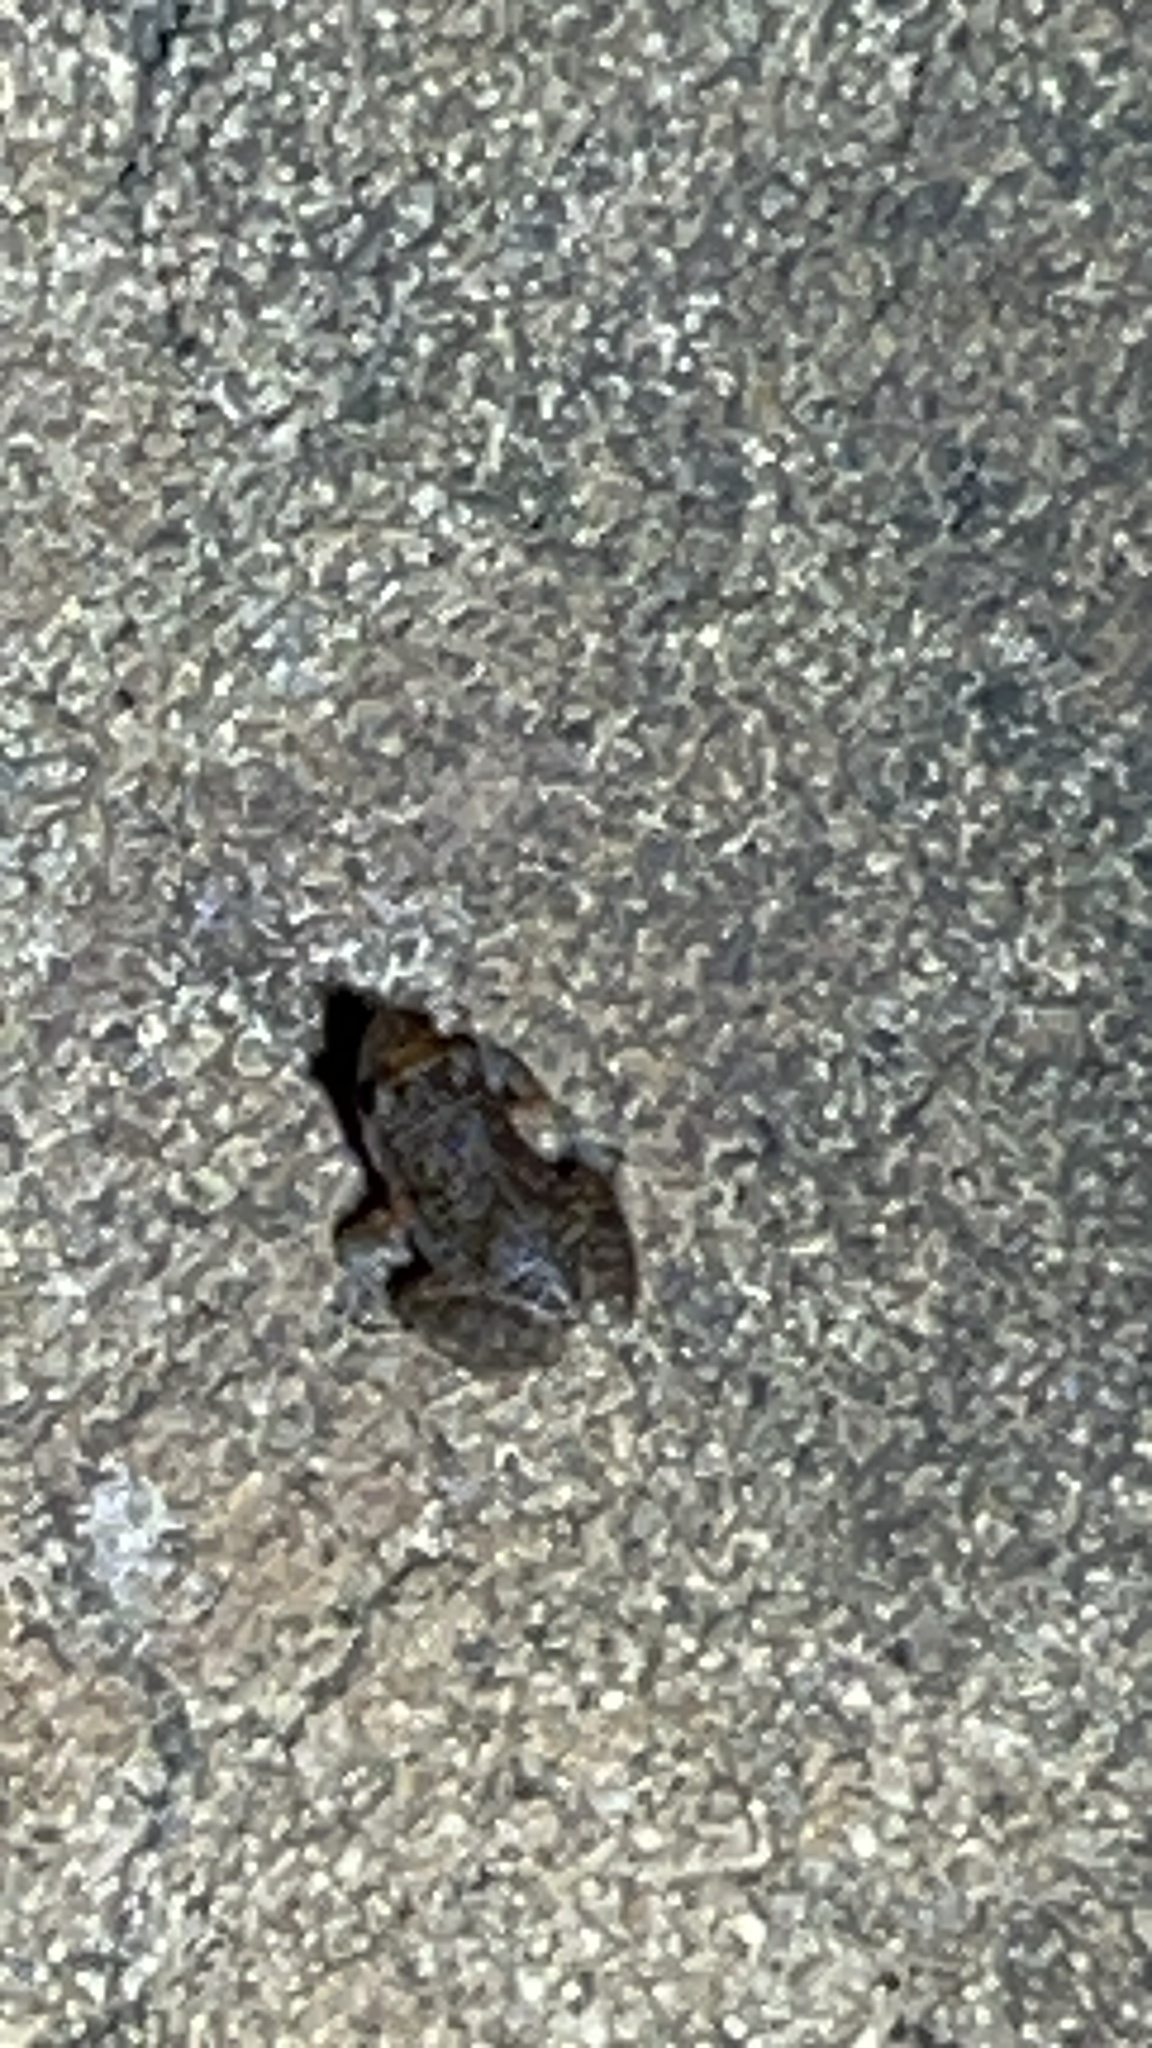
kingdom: Animalia
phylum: Chordata
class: Amphibia
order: Anura
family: Eleutherodactylidae
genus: Eleutherodactylus
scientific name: Eleutherodactylus planirostris
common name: Greenhouse frog
